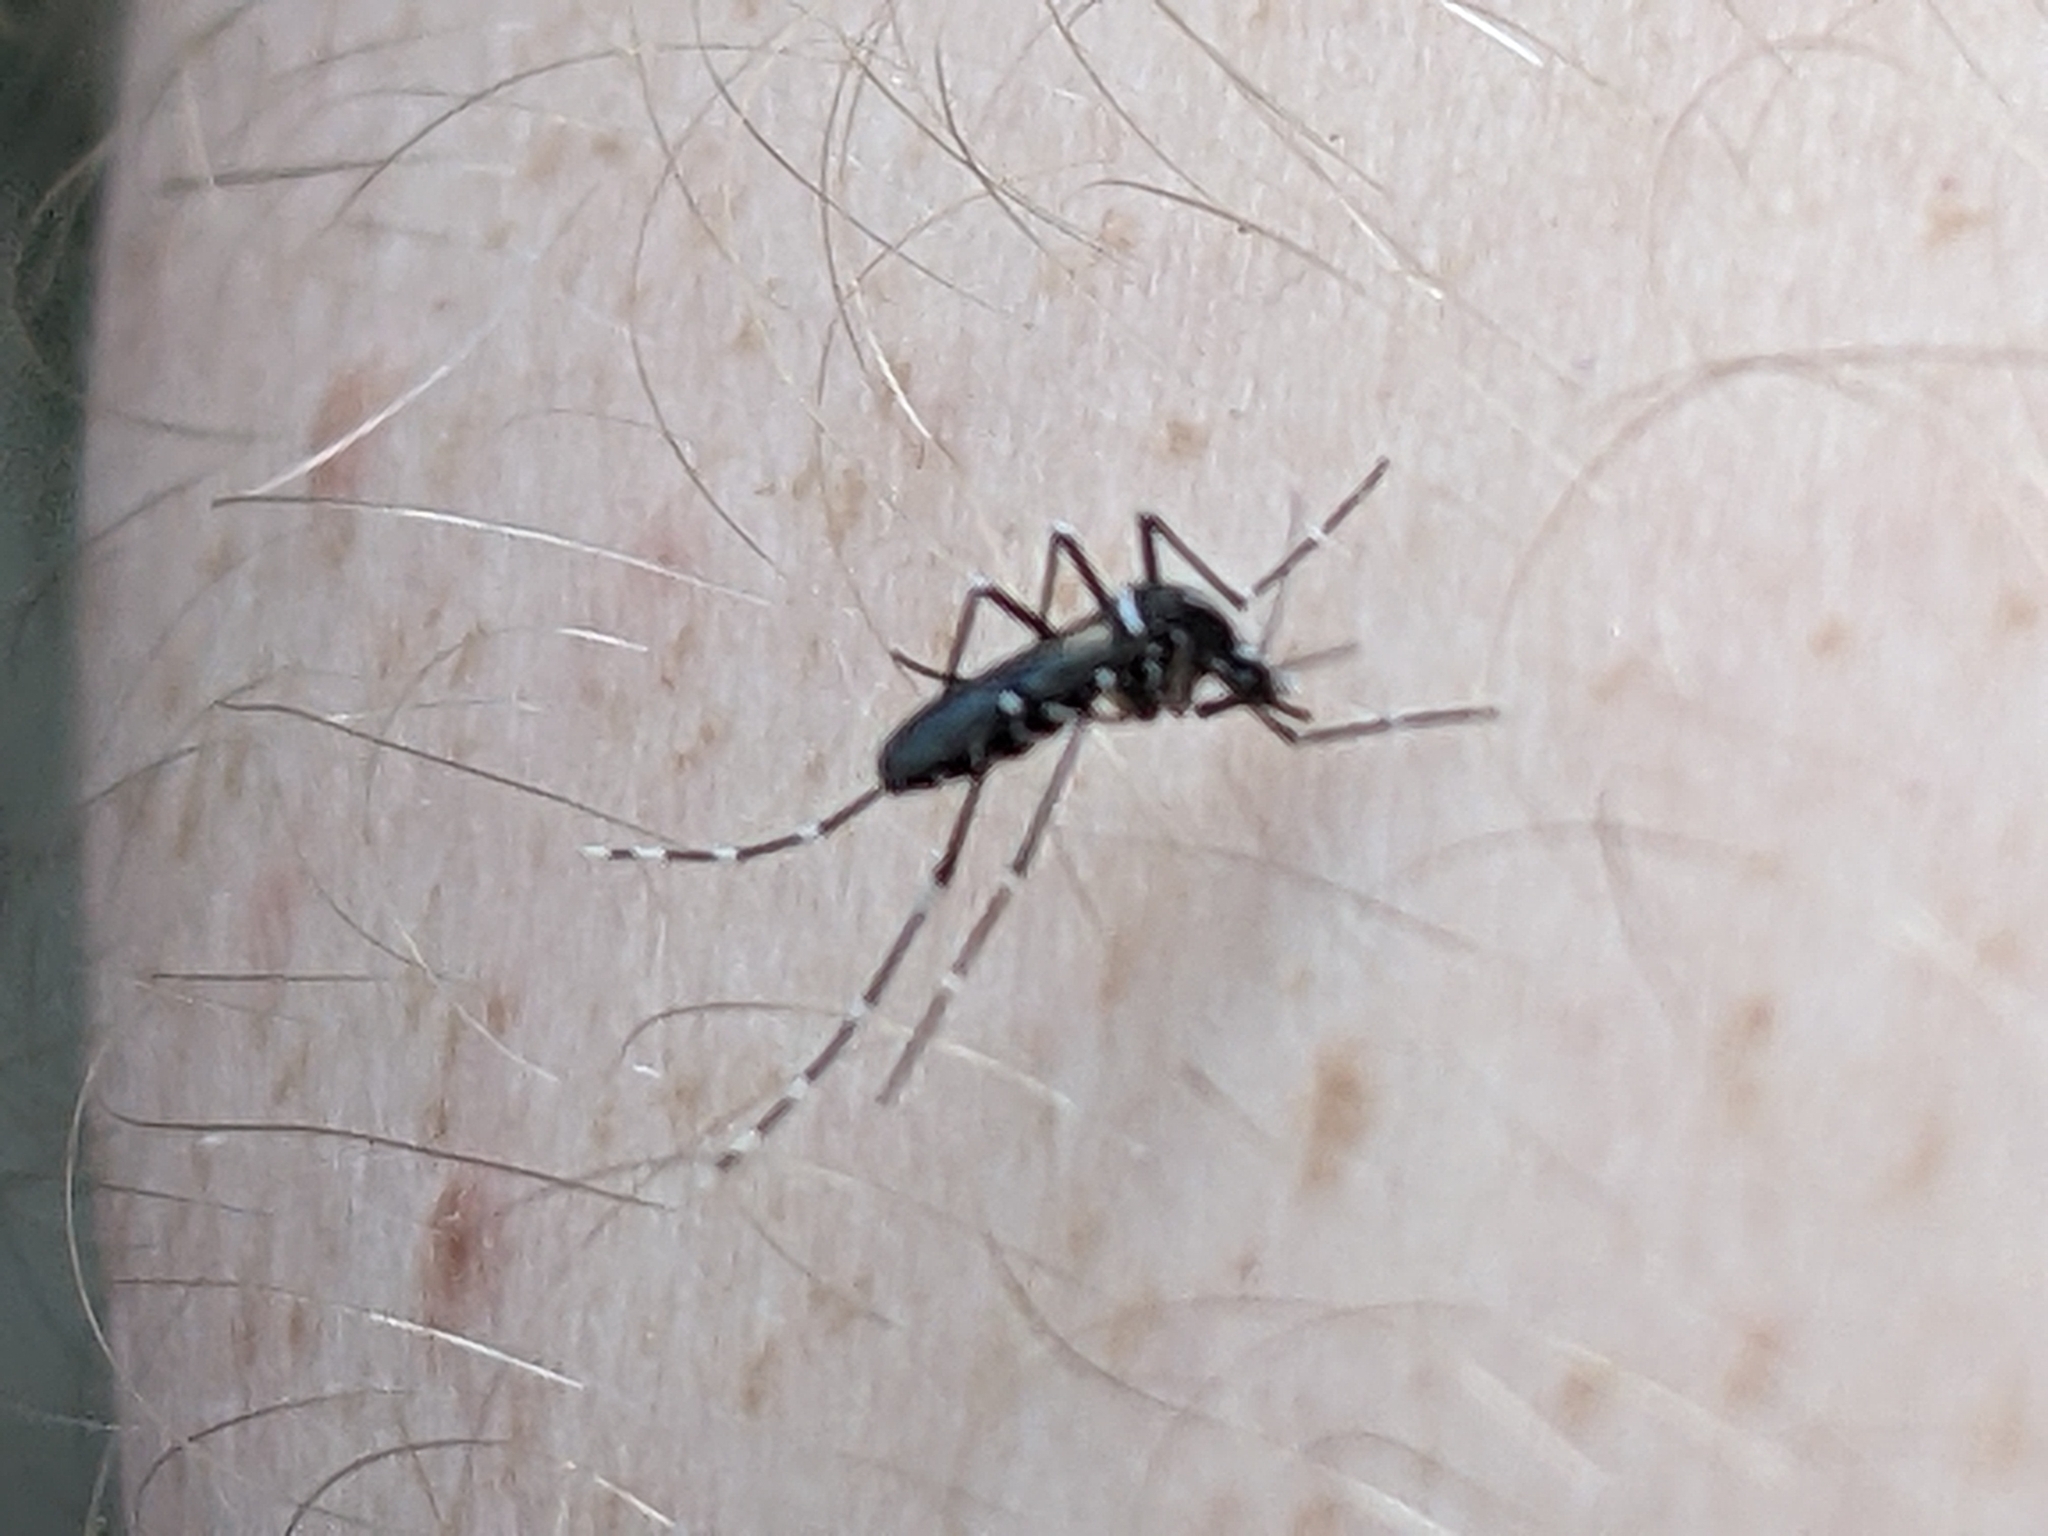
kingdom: Animalia
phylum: Arthropoda
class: Insecta
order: Diptera
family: Culicidae
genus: Aedes
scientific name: Aedes albopictus
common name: Tiger mosquito
